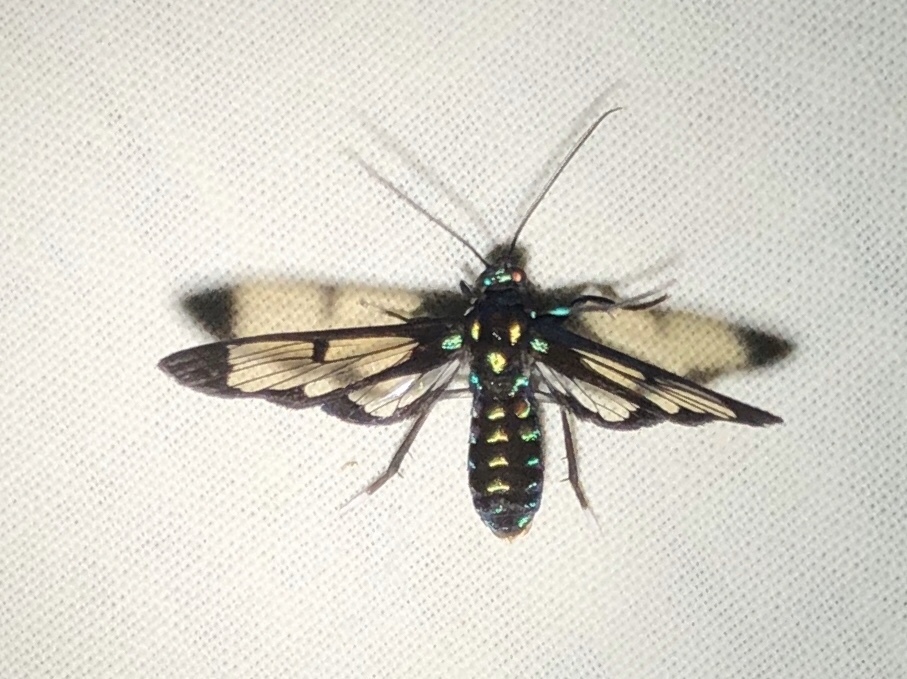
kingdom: Animalia
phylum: Arthropoda
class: Insecta
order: Lepidoptera
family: Erebidae
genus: Cosmosoma
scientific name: Cosmosoma xanthosticta
